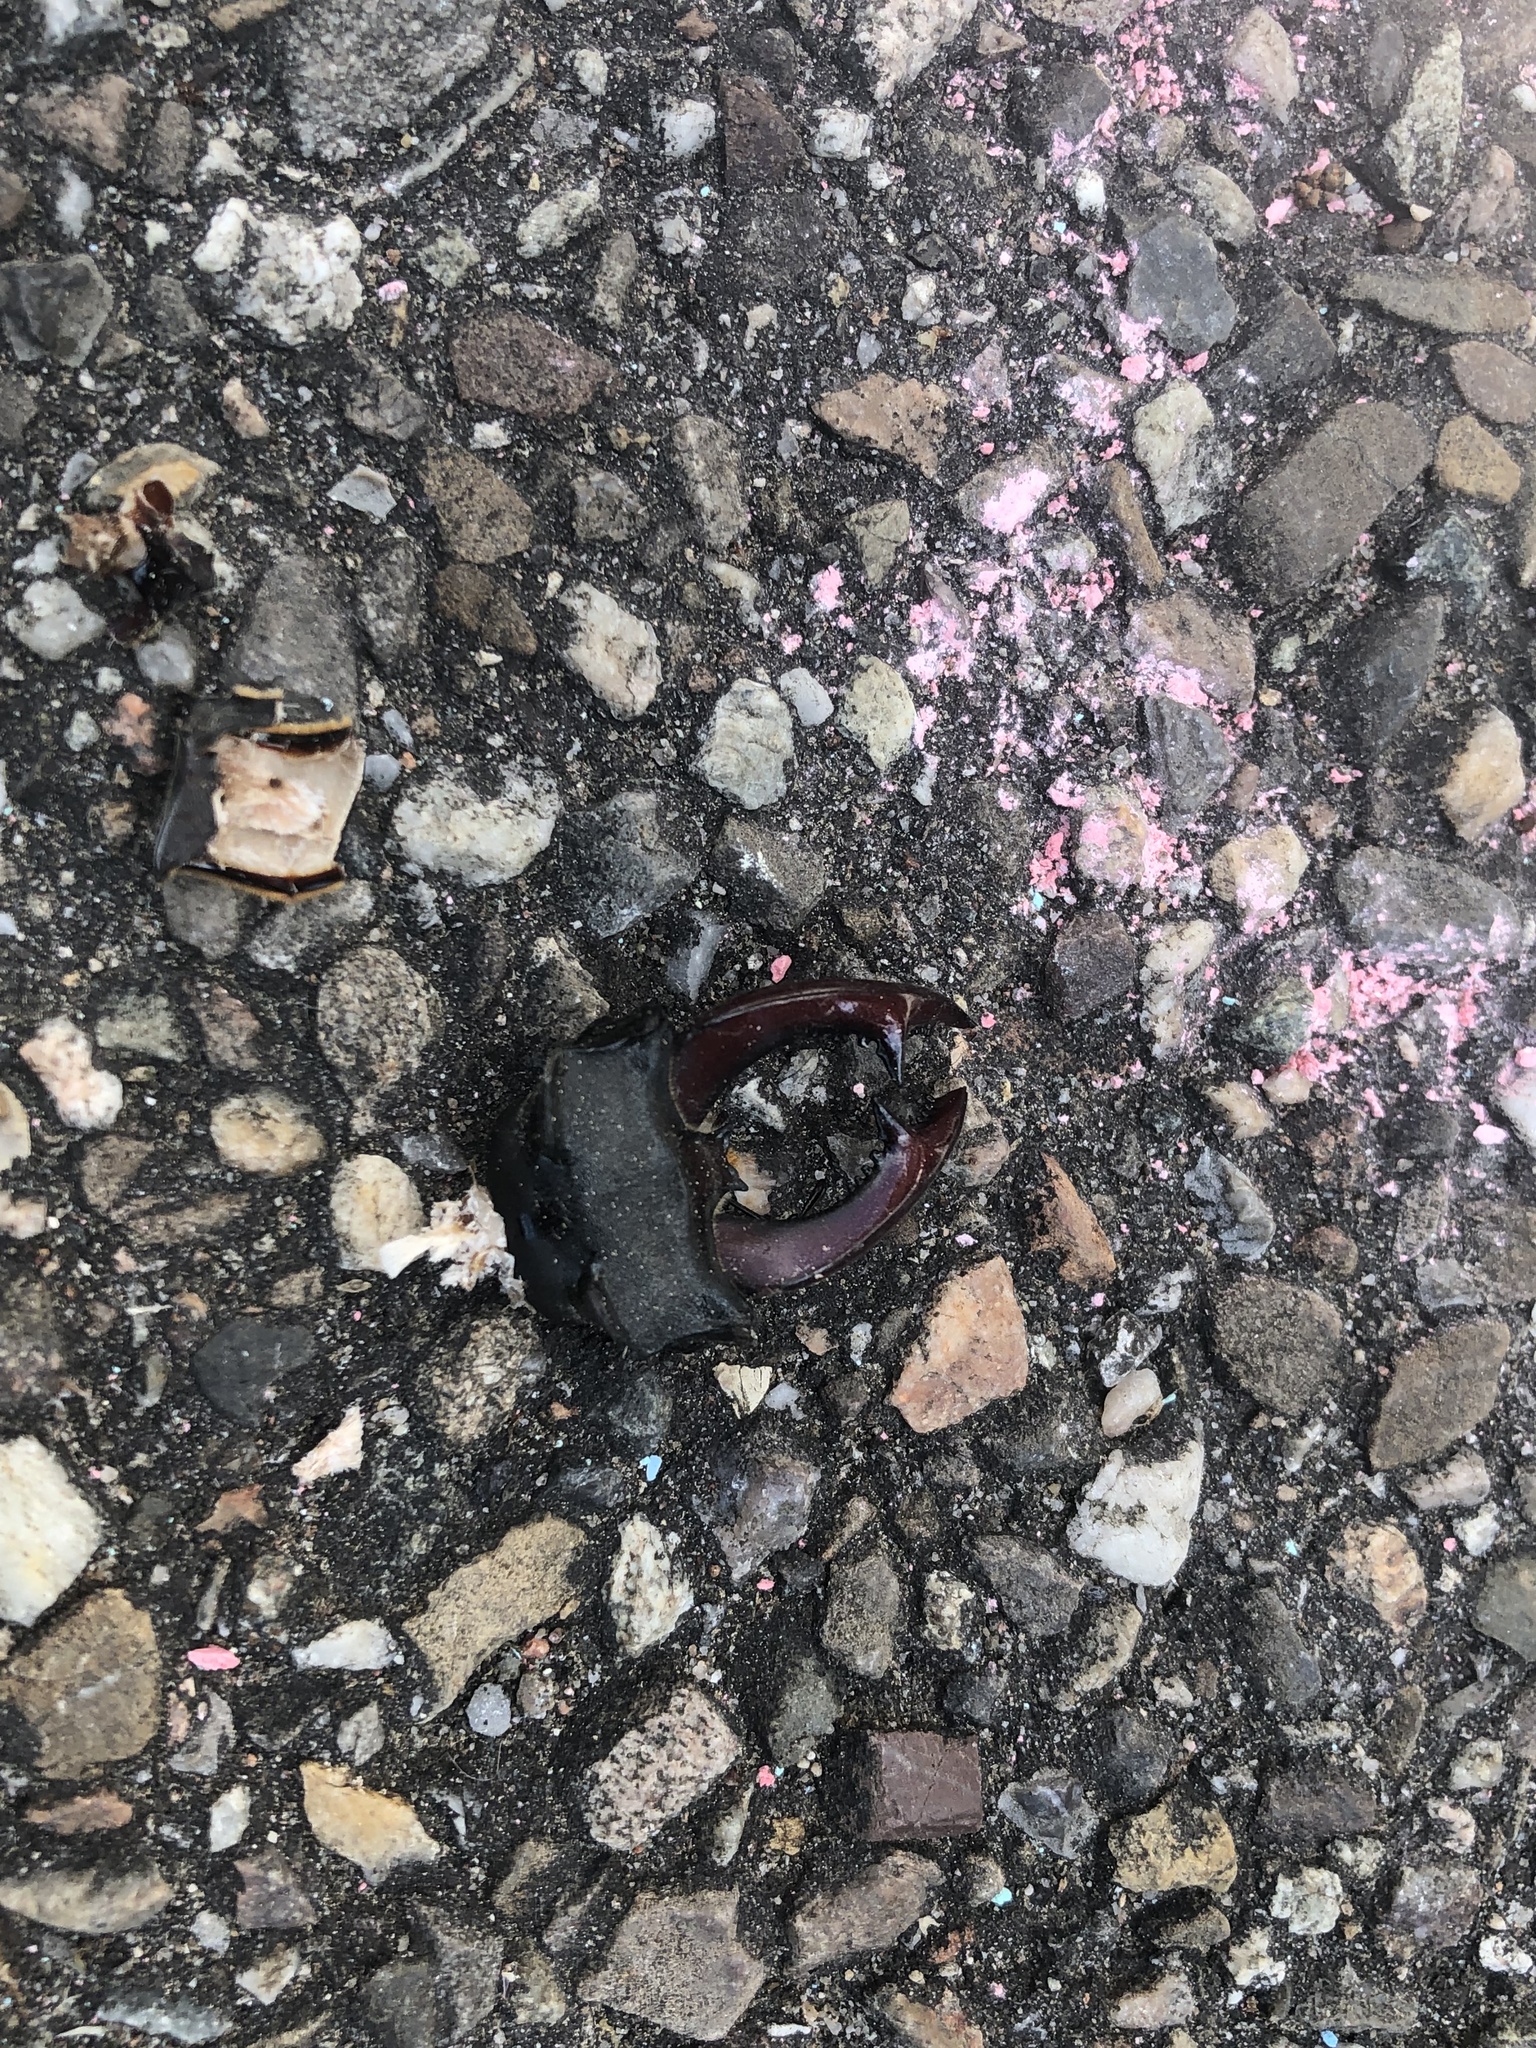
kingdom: Animalia
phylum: Arthropoda
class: Insecta
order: Coleoptera
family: Lucanidae
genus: Lucanus
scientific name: Lucanus cervus
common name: Stag beetle
